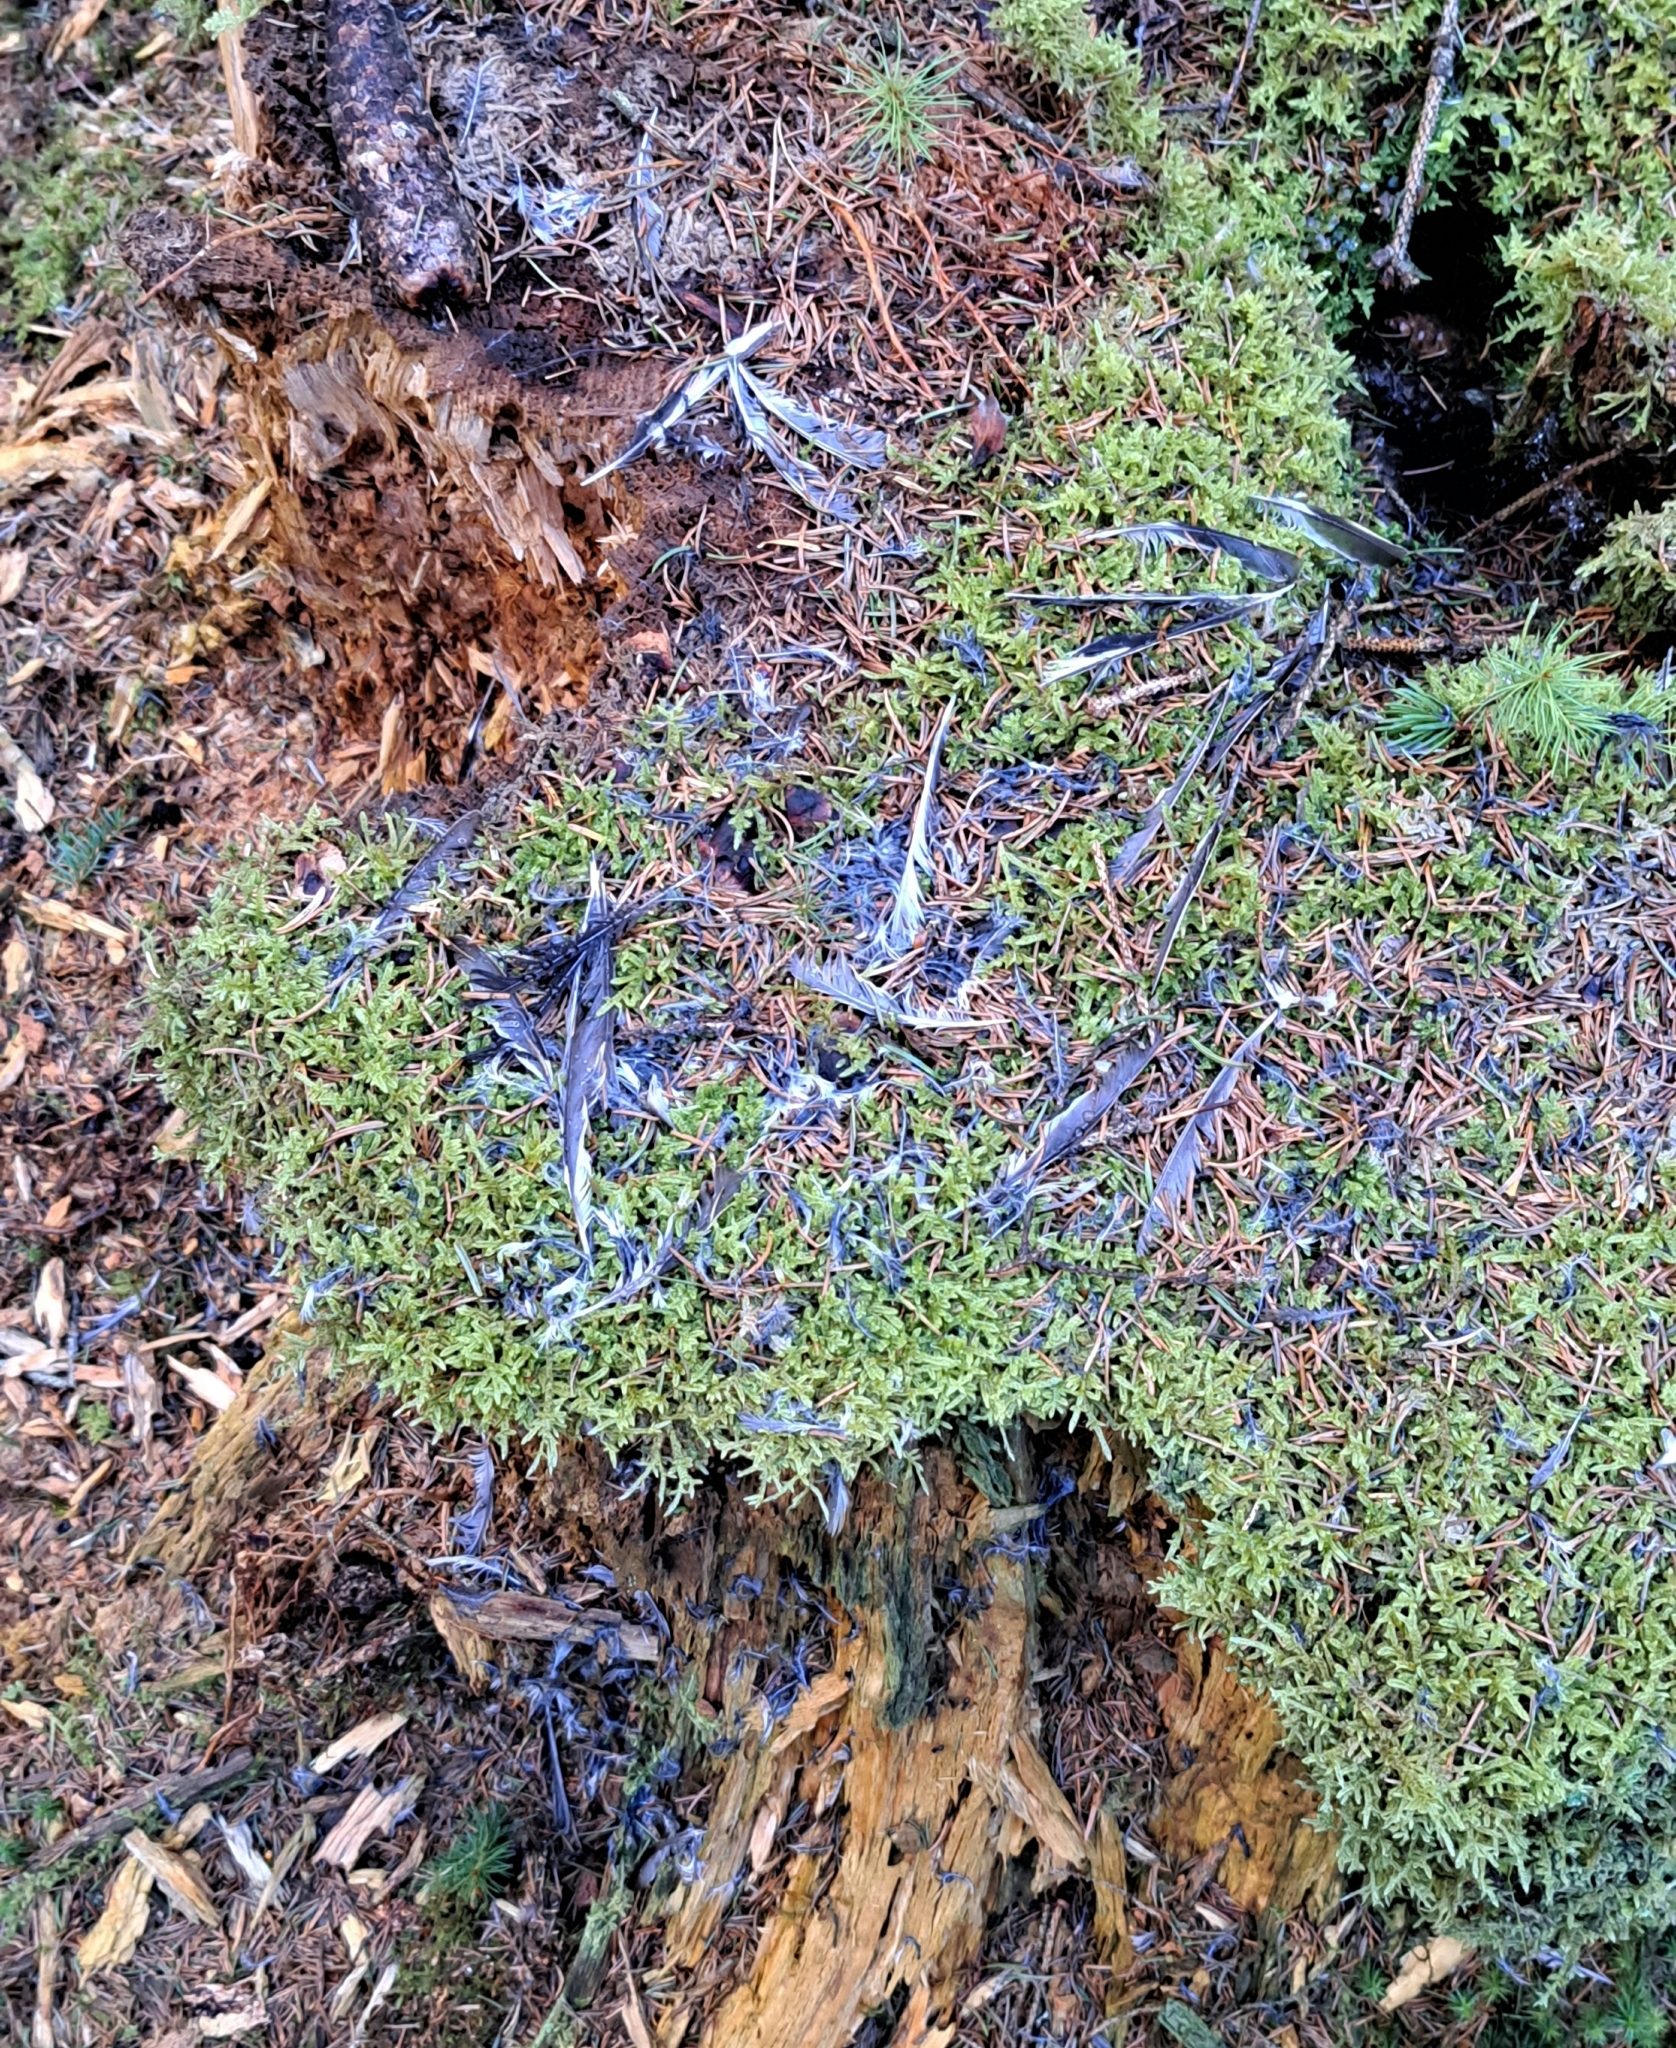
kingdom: Animalia
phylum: Chordata
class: Aves
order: Passeriformes
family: Fringillidae
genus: Fringilla
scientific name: Fringilla coelebs
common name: Common chaffinch
